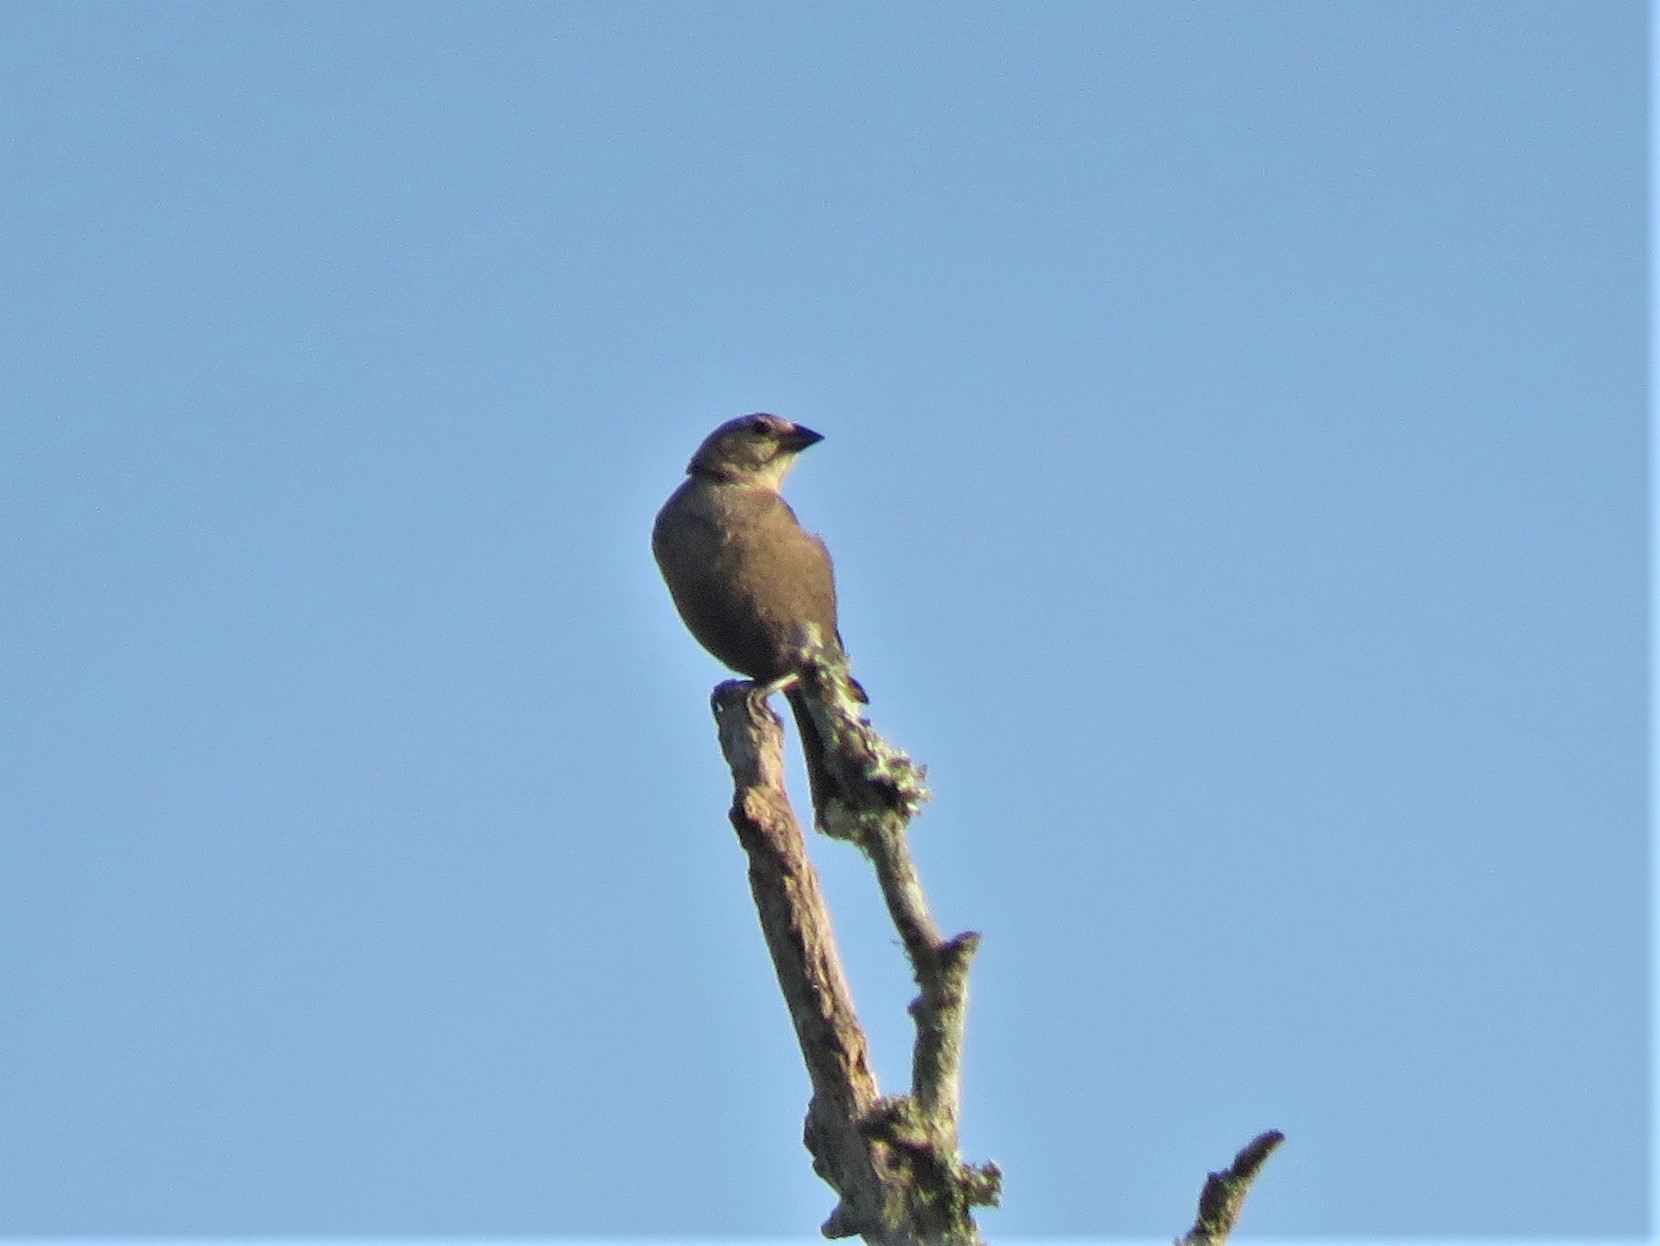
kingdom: Animalia
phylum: Chordata
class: Aves
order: Passeriformes
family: Icteridae
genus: Molothrus
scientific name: Molothrus ater
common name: Brown-headed cowbird
